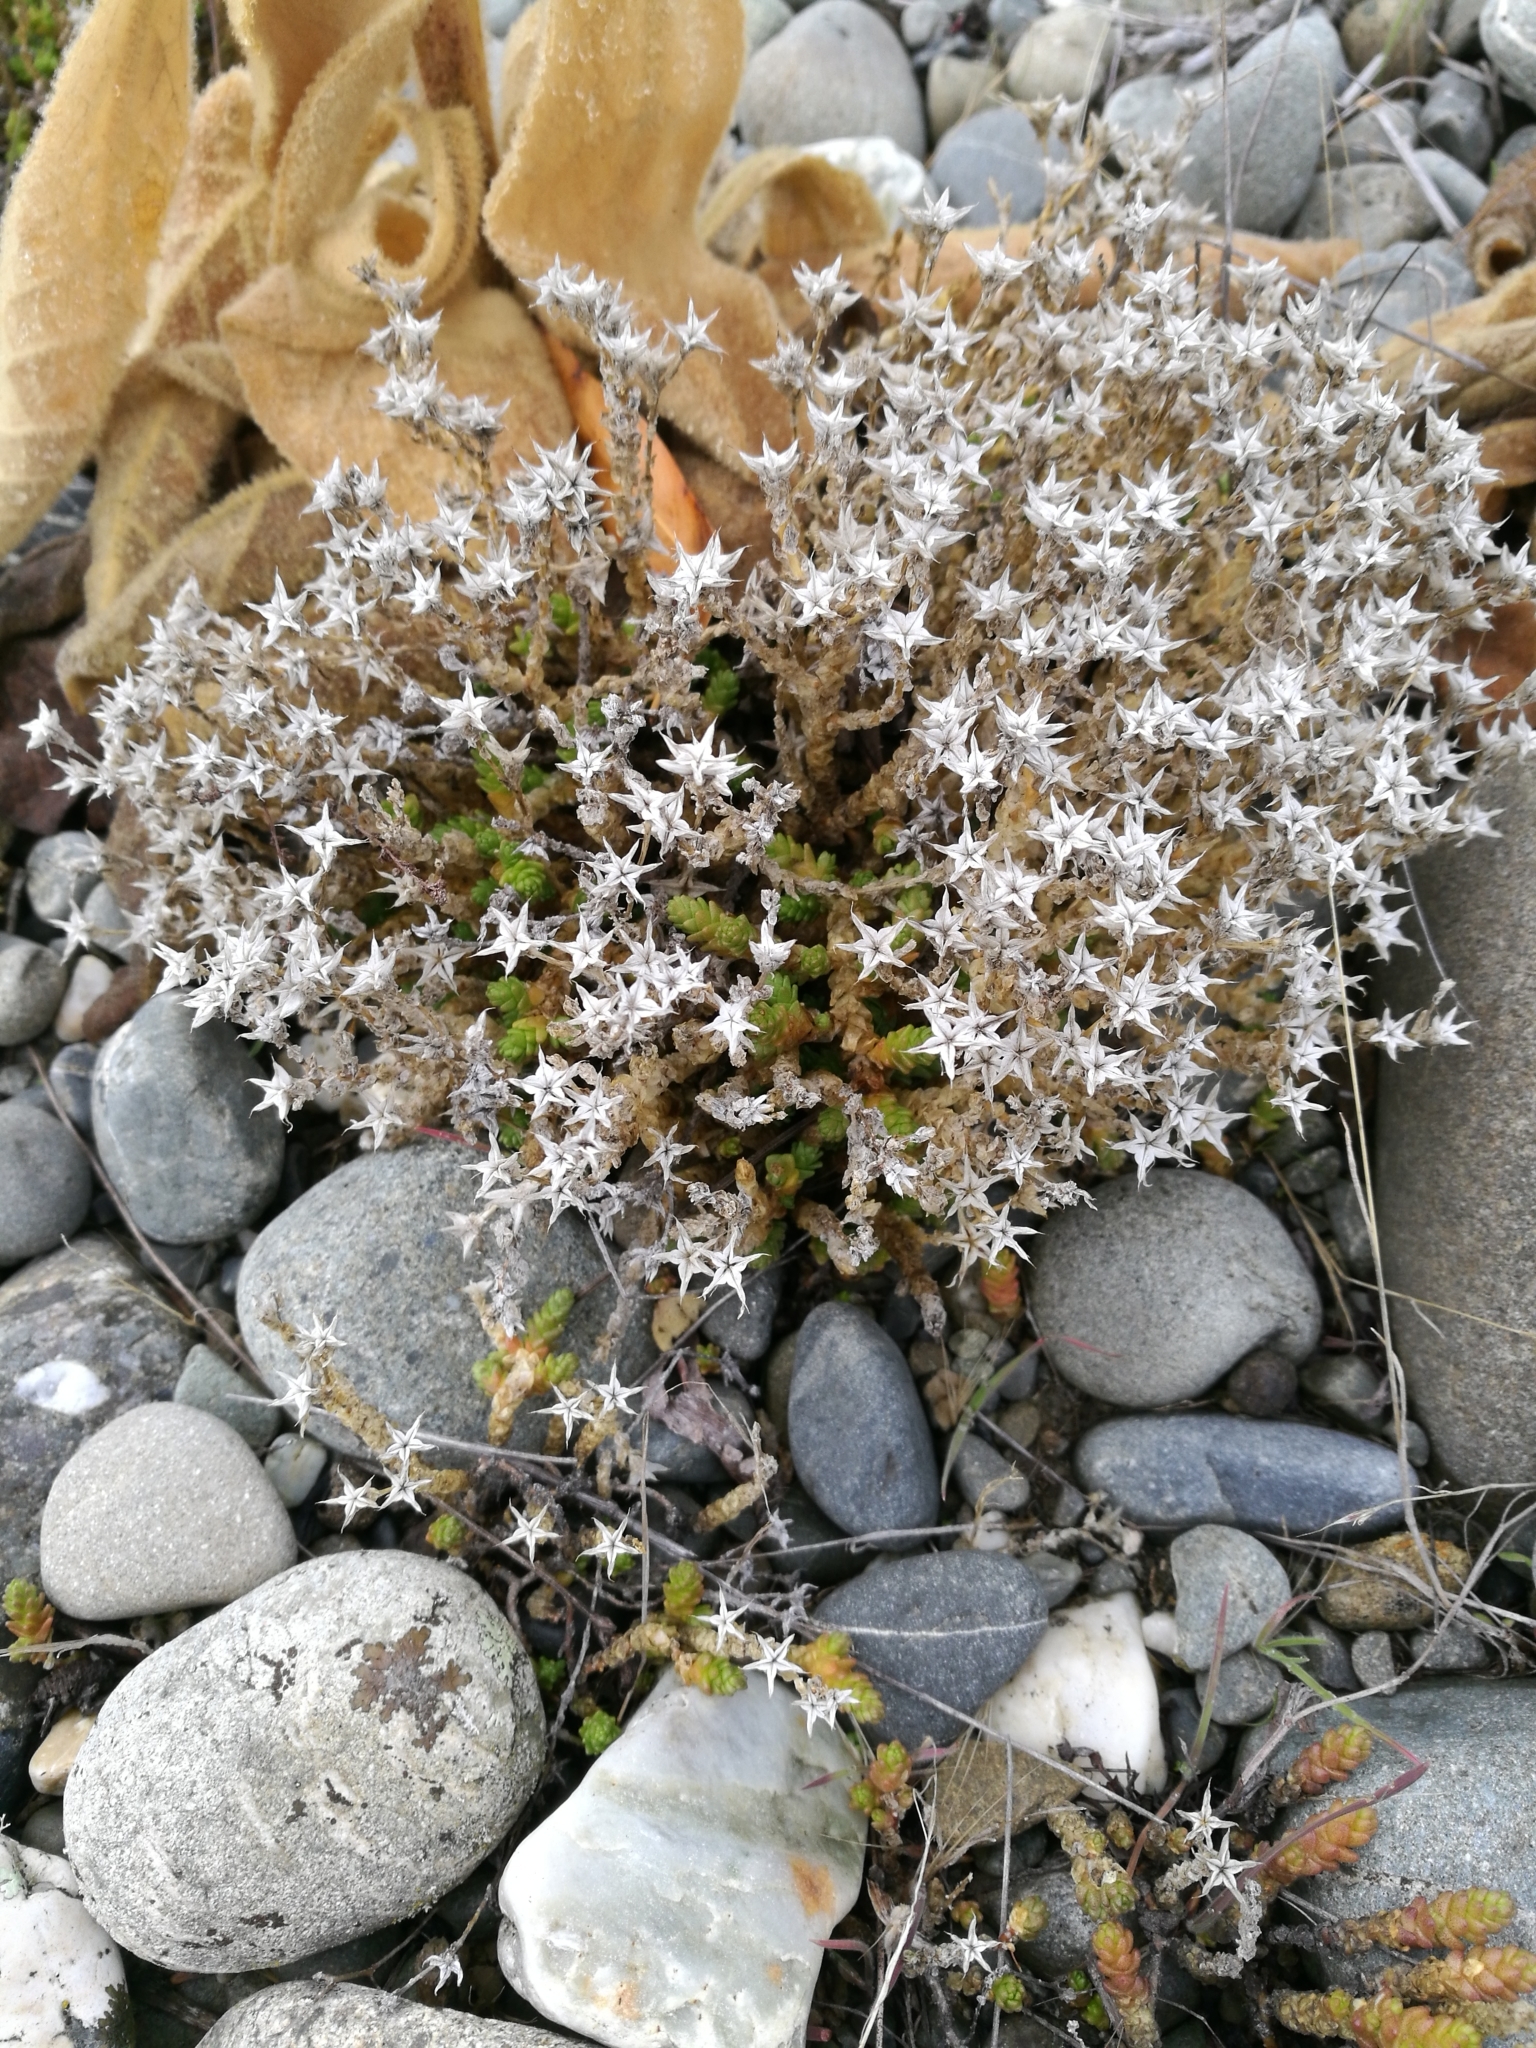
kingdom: Plantae
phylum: Tracheophyta
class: Magnoliopsida
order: Saxifragales
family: Crassulaceae
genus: Sedum
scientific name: Sedum acre
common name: Biting stonecrop
